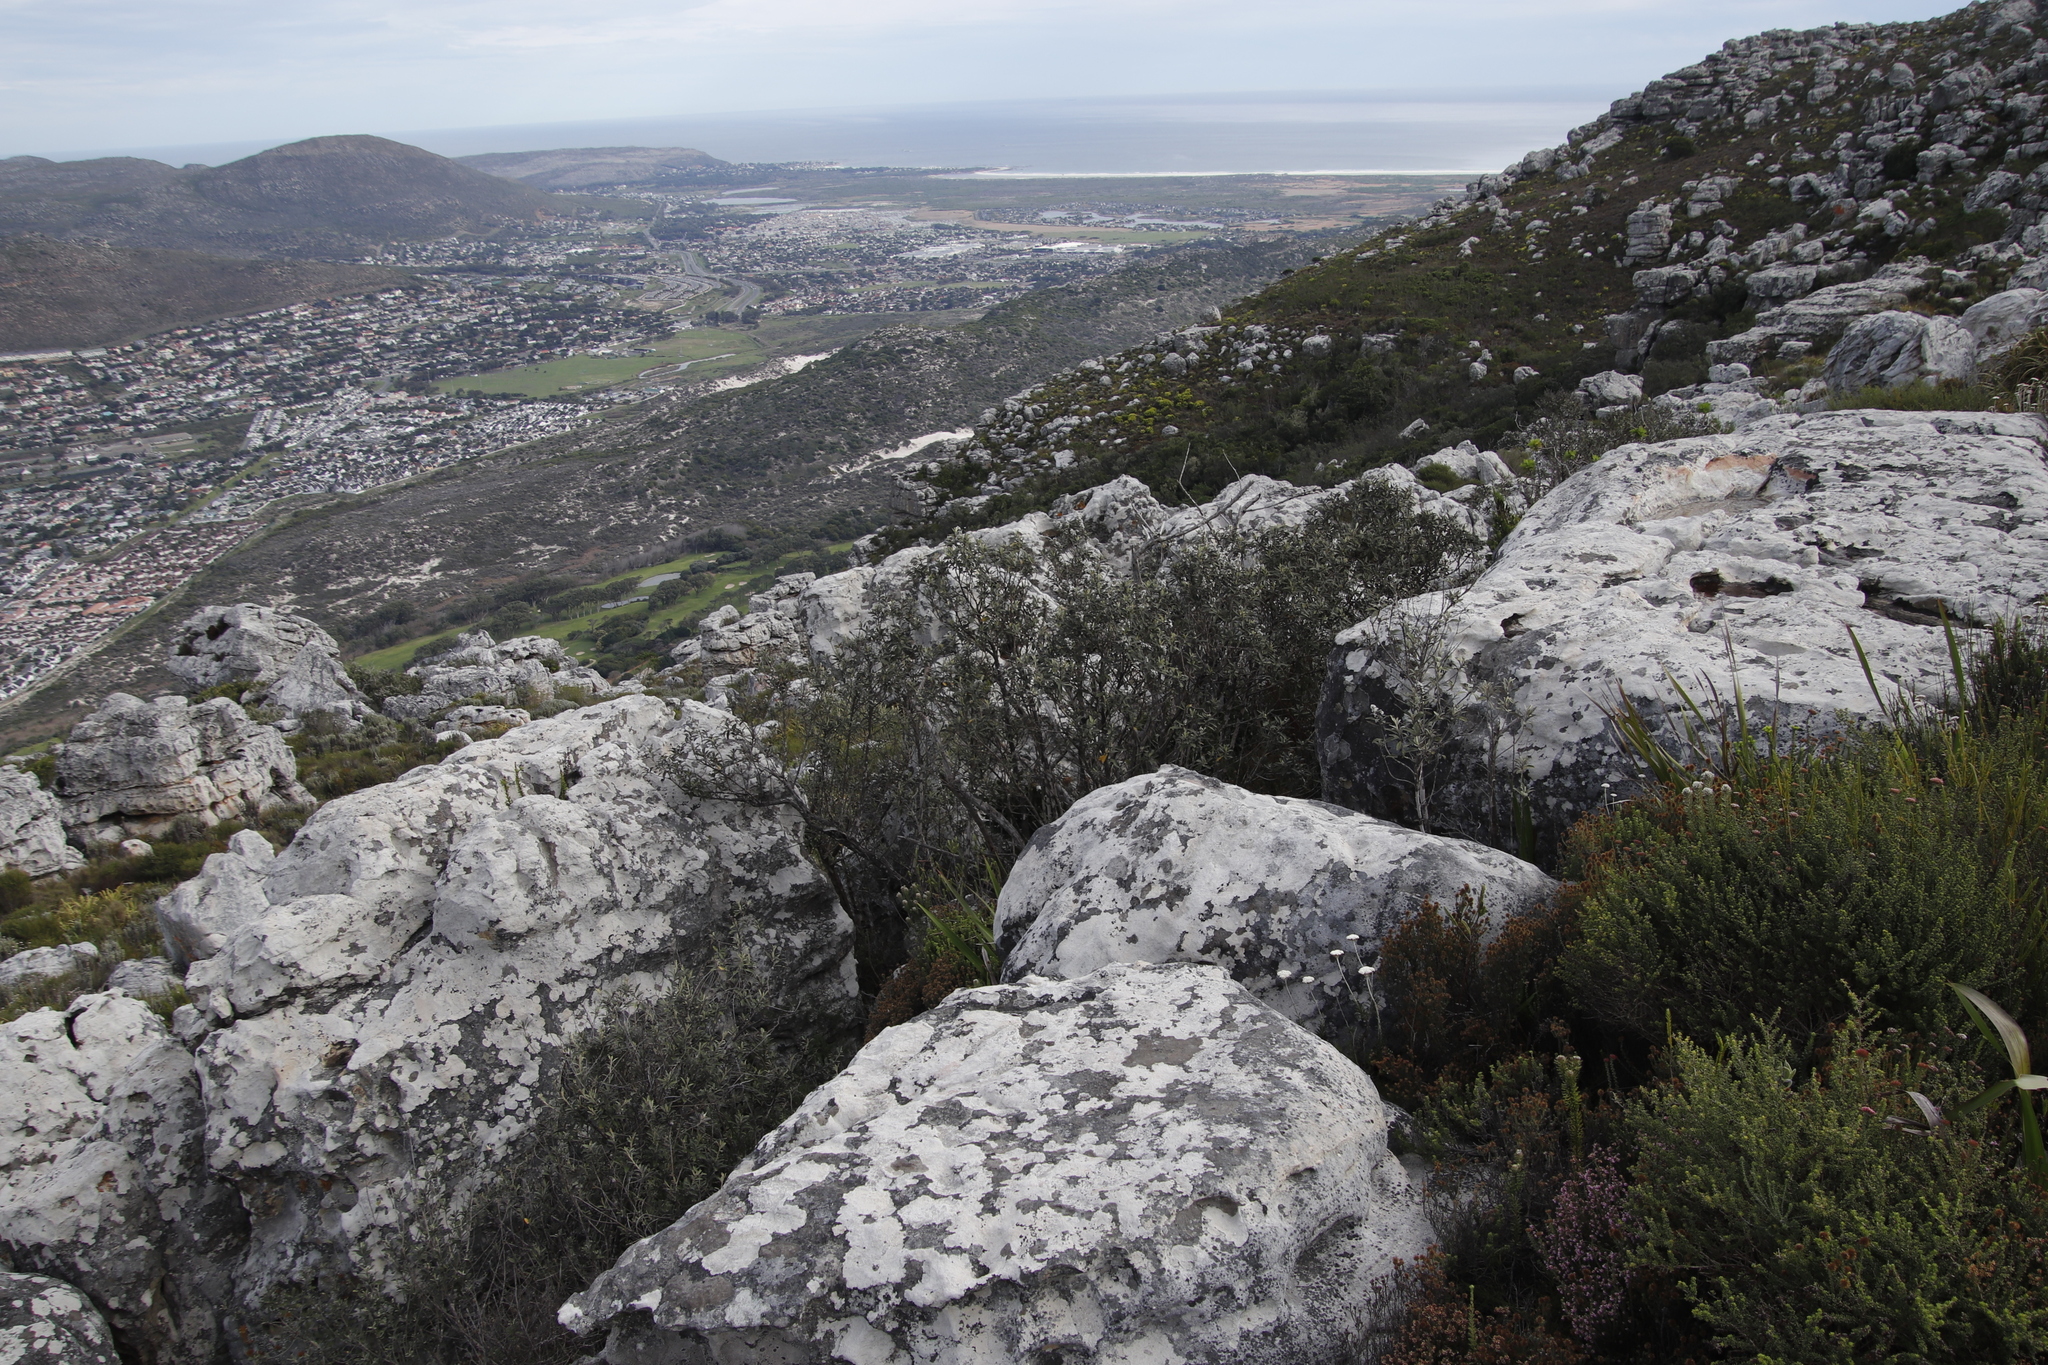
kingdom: Plantae
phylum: Tracheophyta
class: Magnoliopsida
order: Asterales
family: Asteraceae
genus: Tarchonanthus
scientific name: Tarchonanthus littoralis
